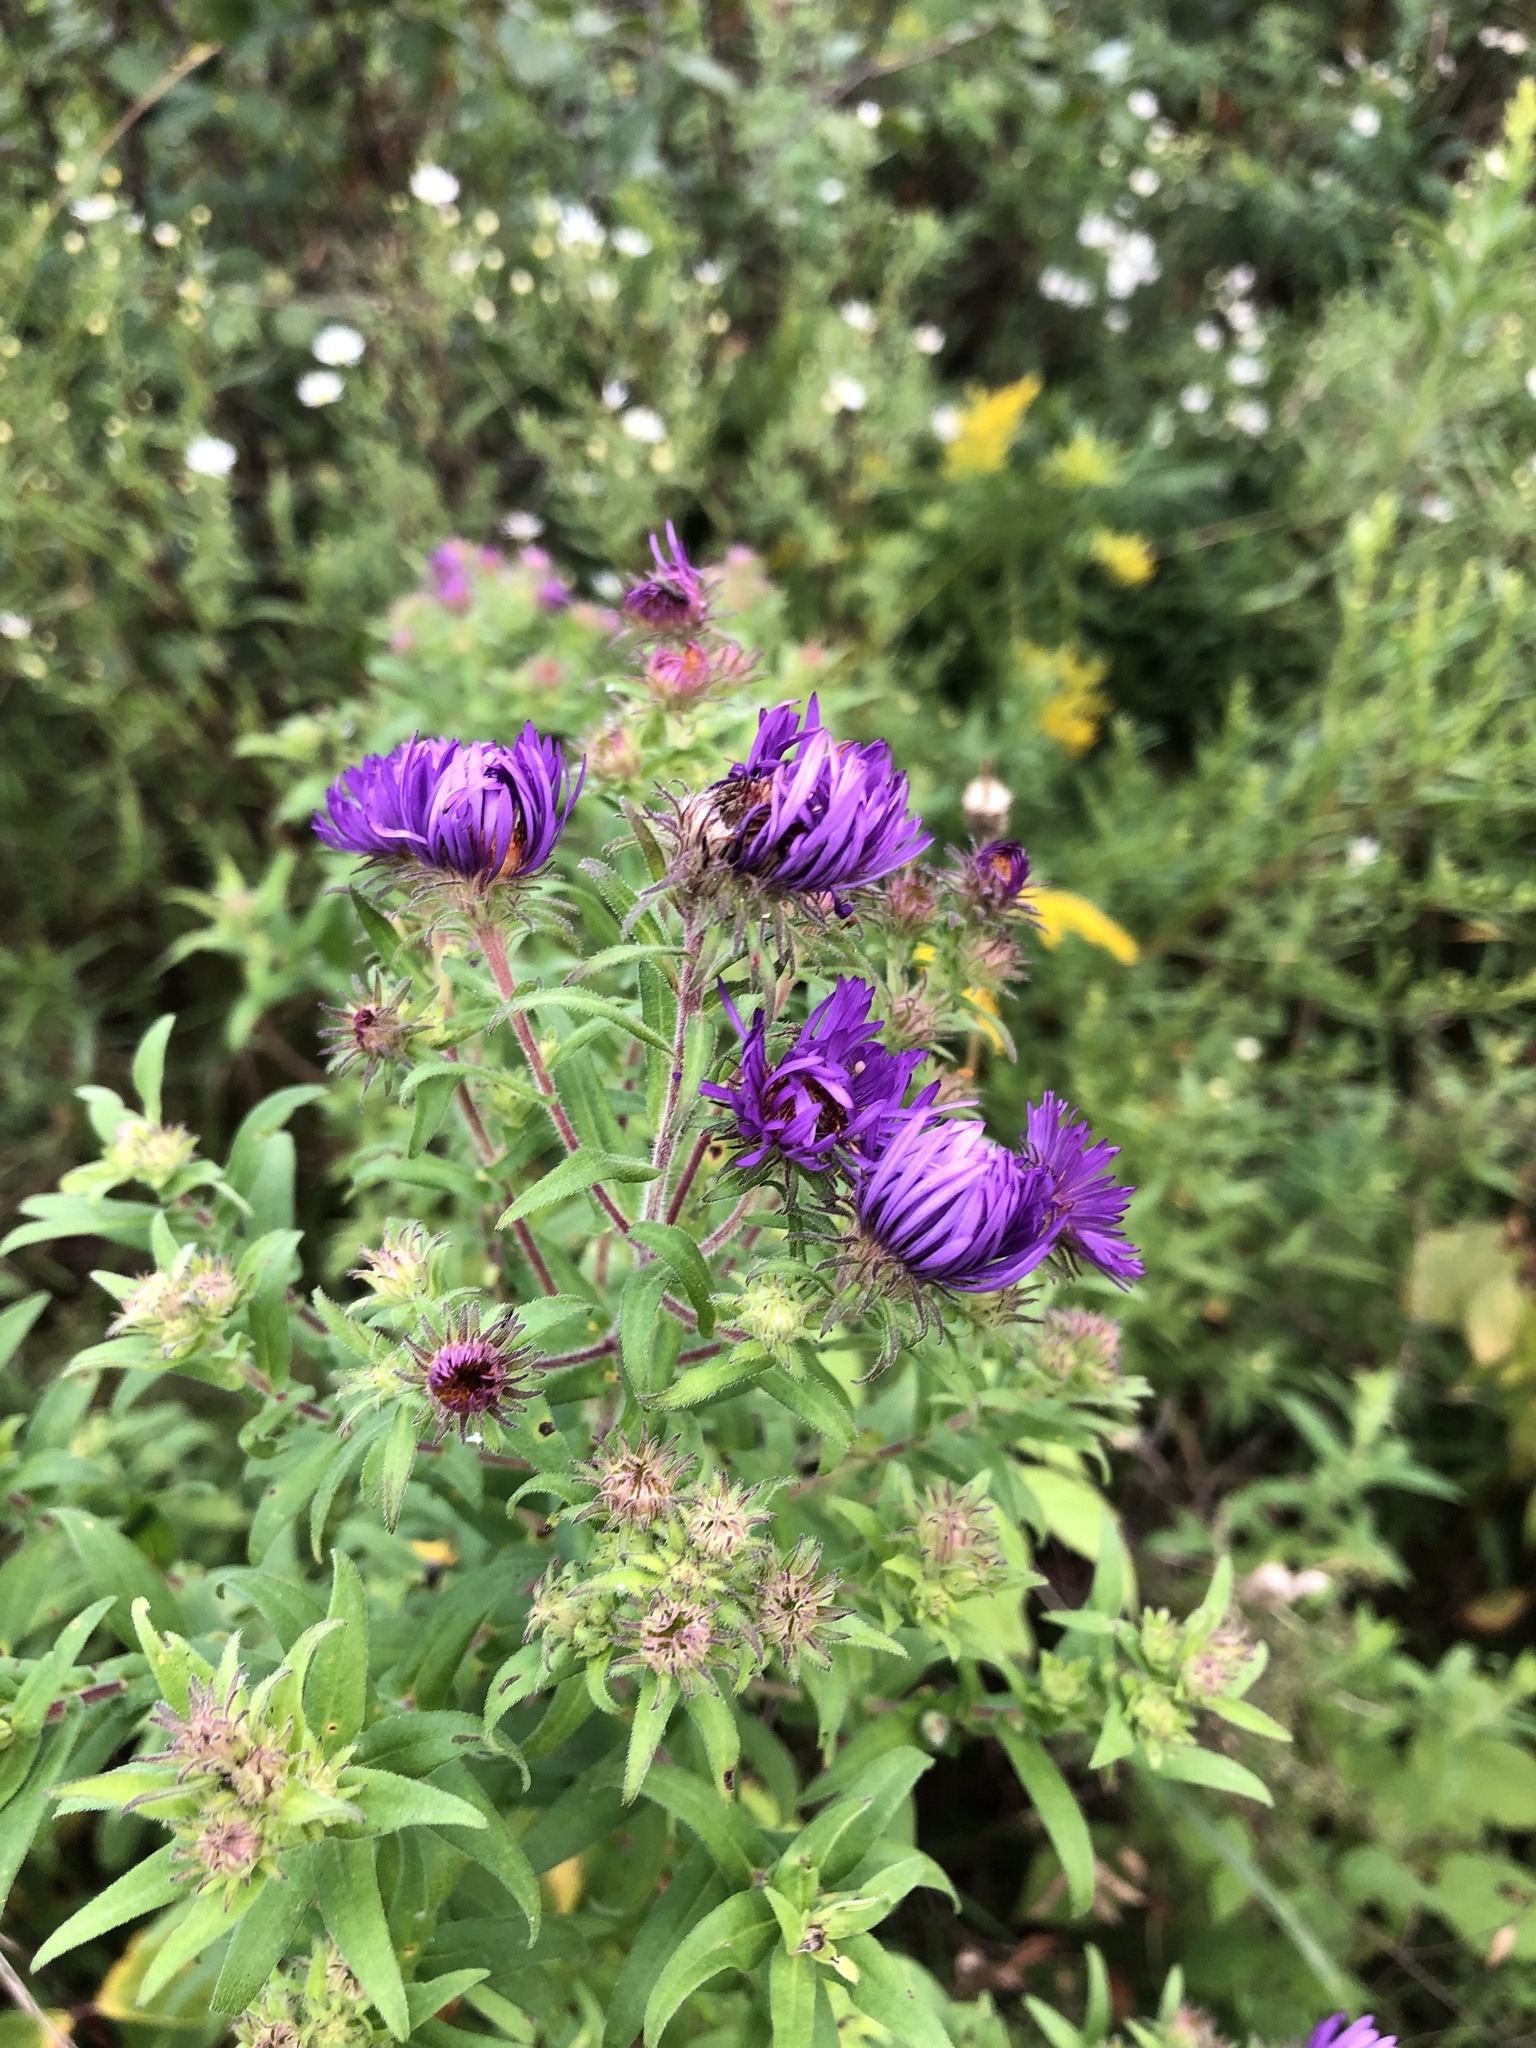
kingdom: Plantae
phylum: Tracheophyta
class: Magnoliopsida
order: Asterales
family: Asteraceae
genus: Symphyotrichum
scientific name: Symphyotrichum novae-angliae
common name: Michaelmas daisy
